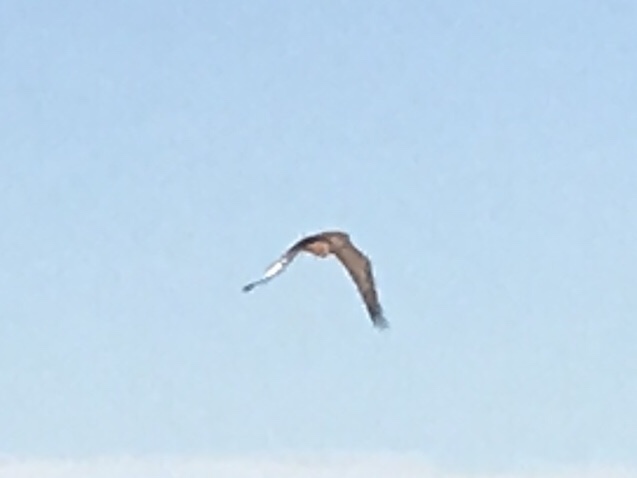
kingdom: Animalia
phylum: Chordata
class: Aves
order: Accipitriformes
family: Accipitridae
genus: Buteo
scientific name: Buteo jamaicensis
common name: Red-tailed hawk
